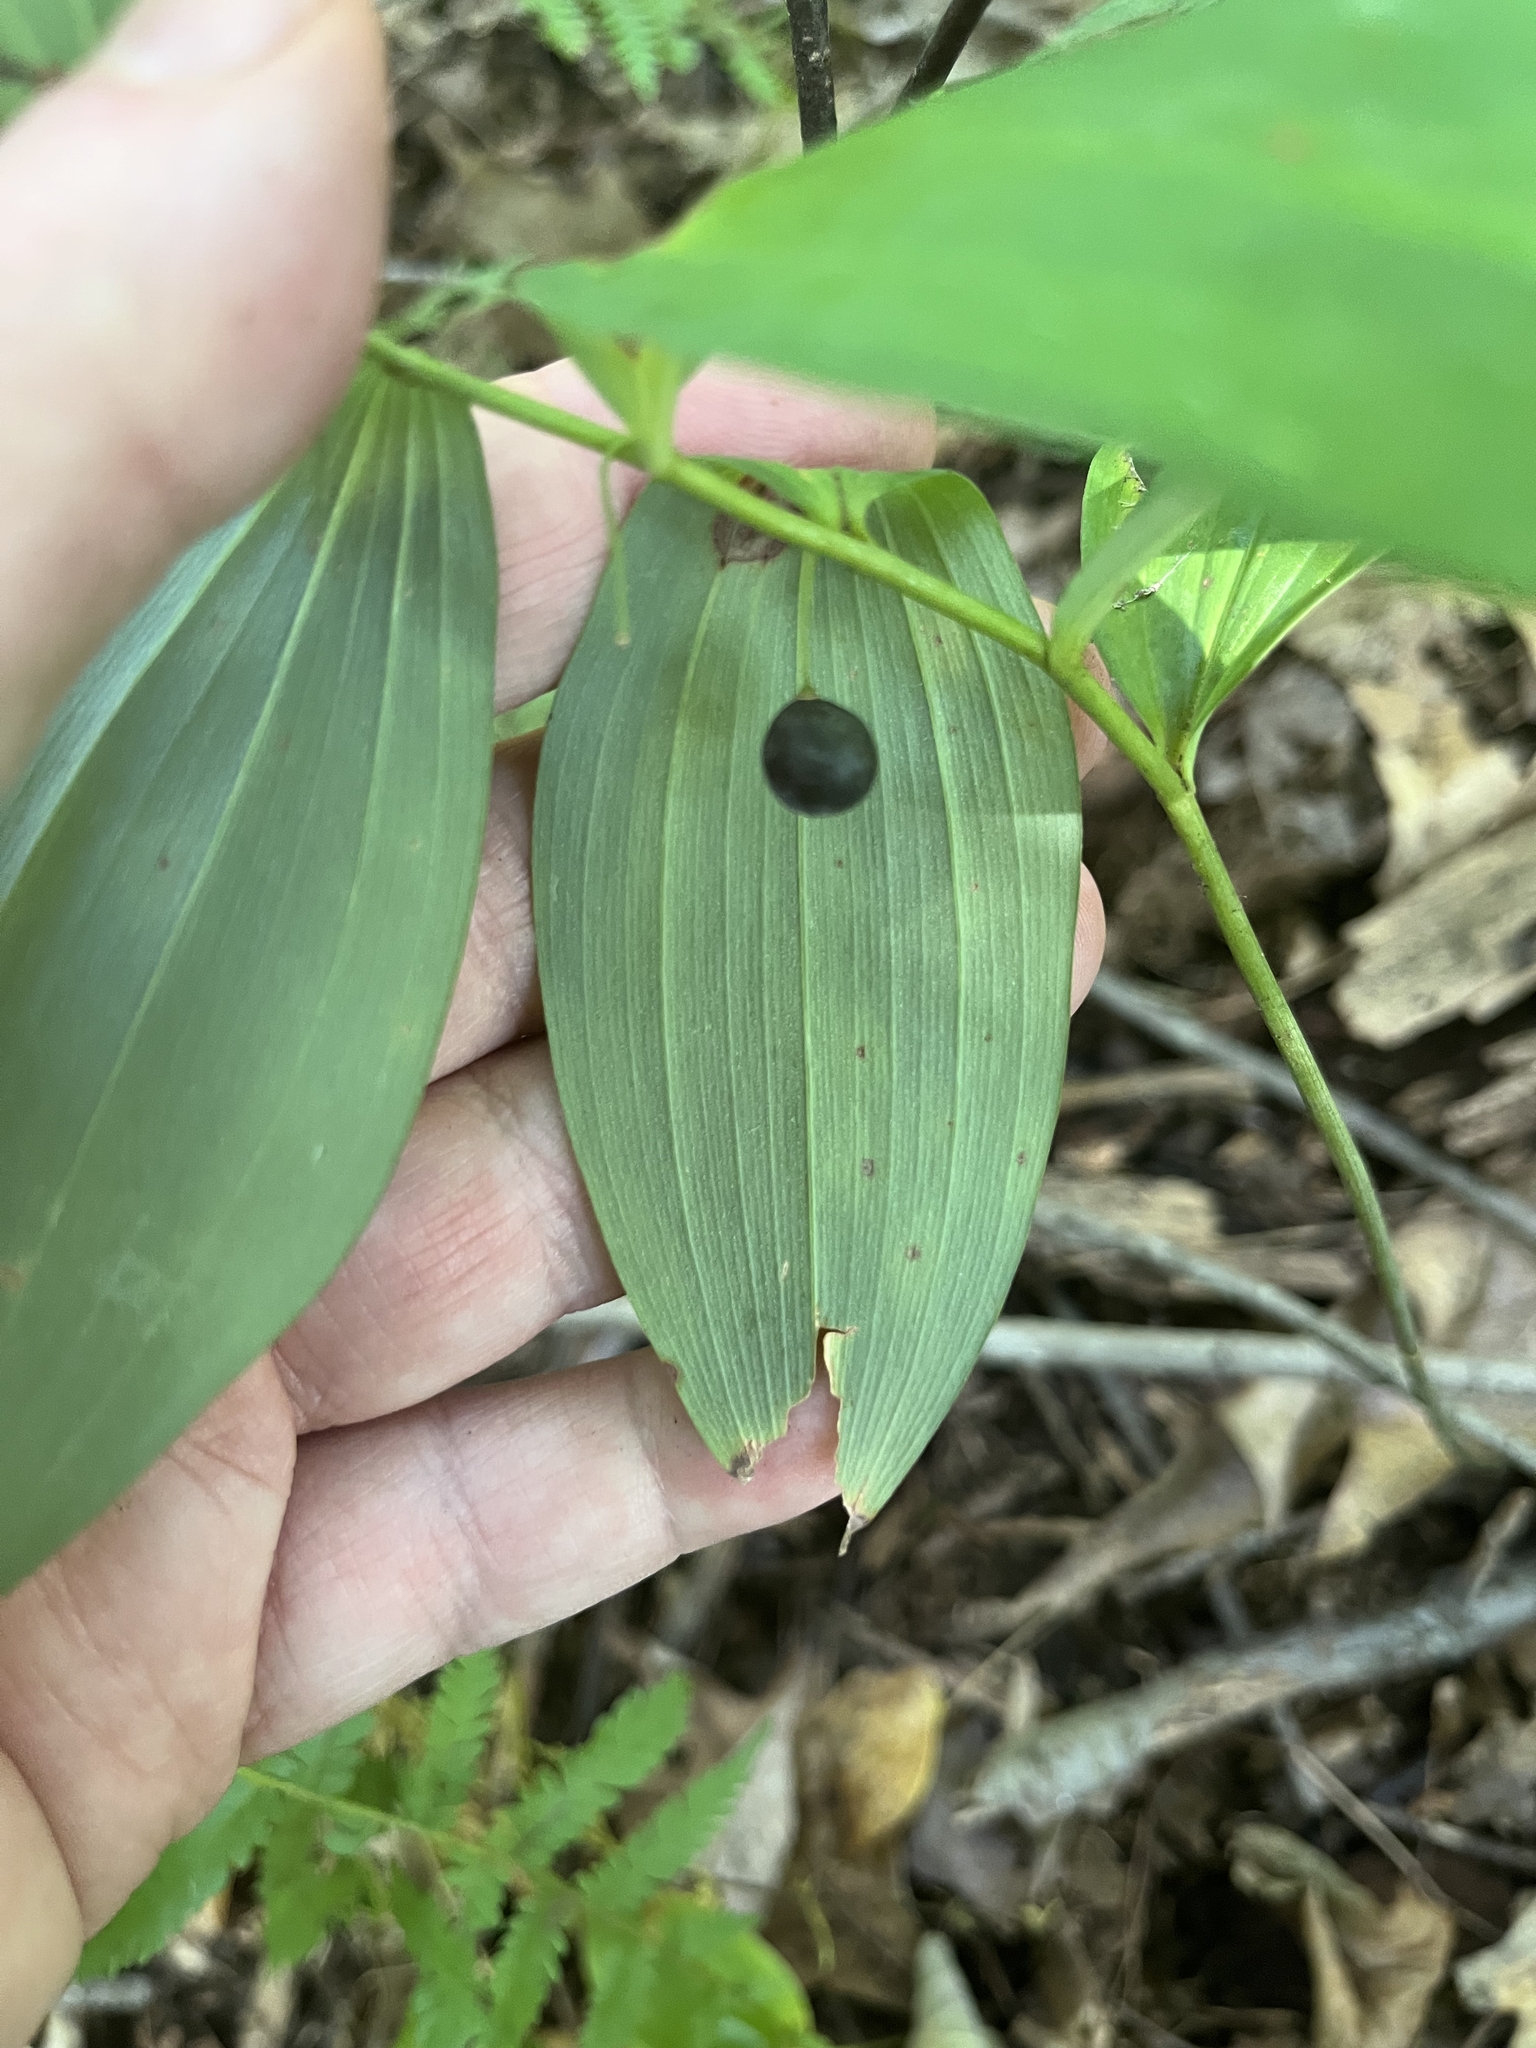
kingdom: Plantae
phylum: Tracheophyta
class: Liliopsida
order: Asparagales
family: Asparagaceae
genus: Polygonatum
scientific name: Polygonatum pubescens
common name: Downy solomon's seal
